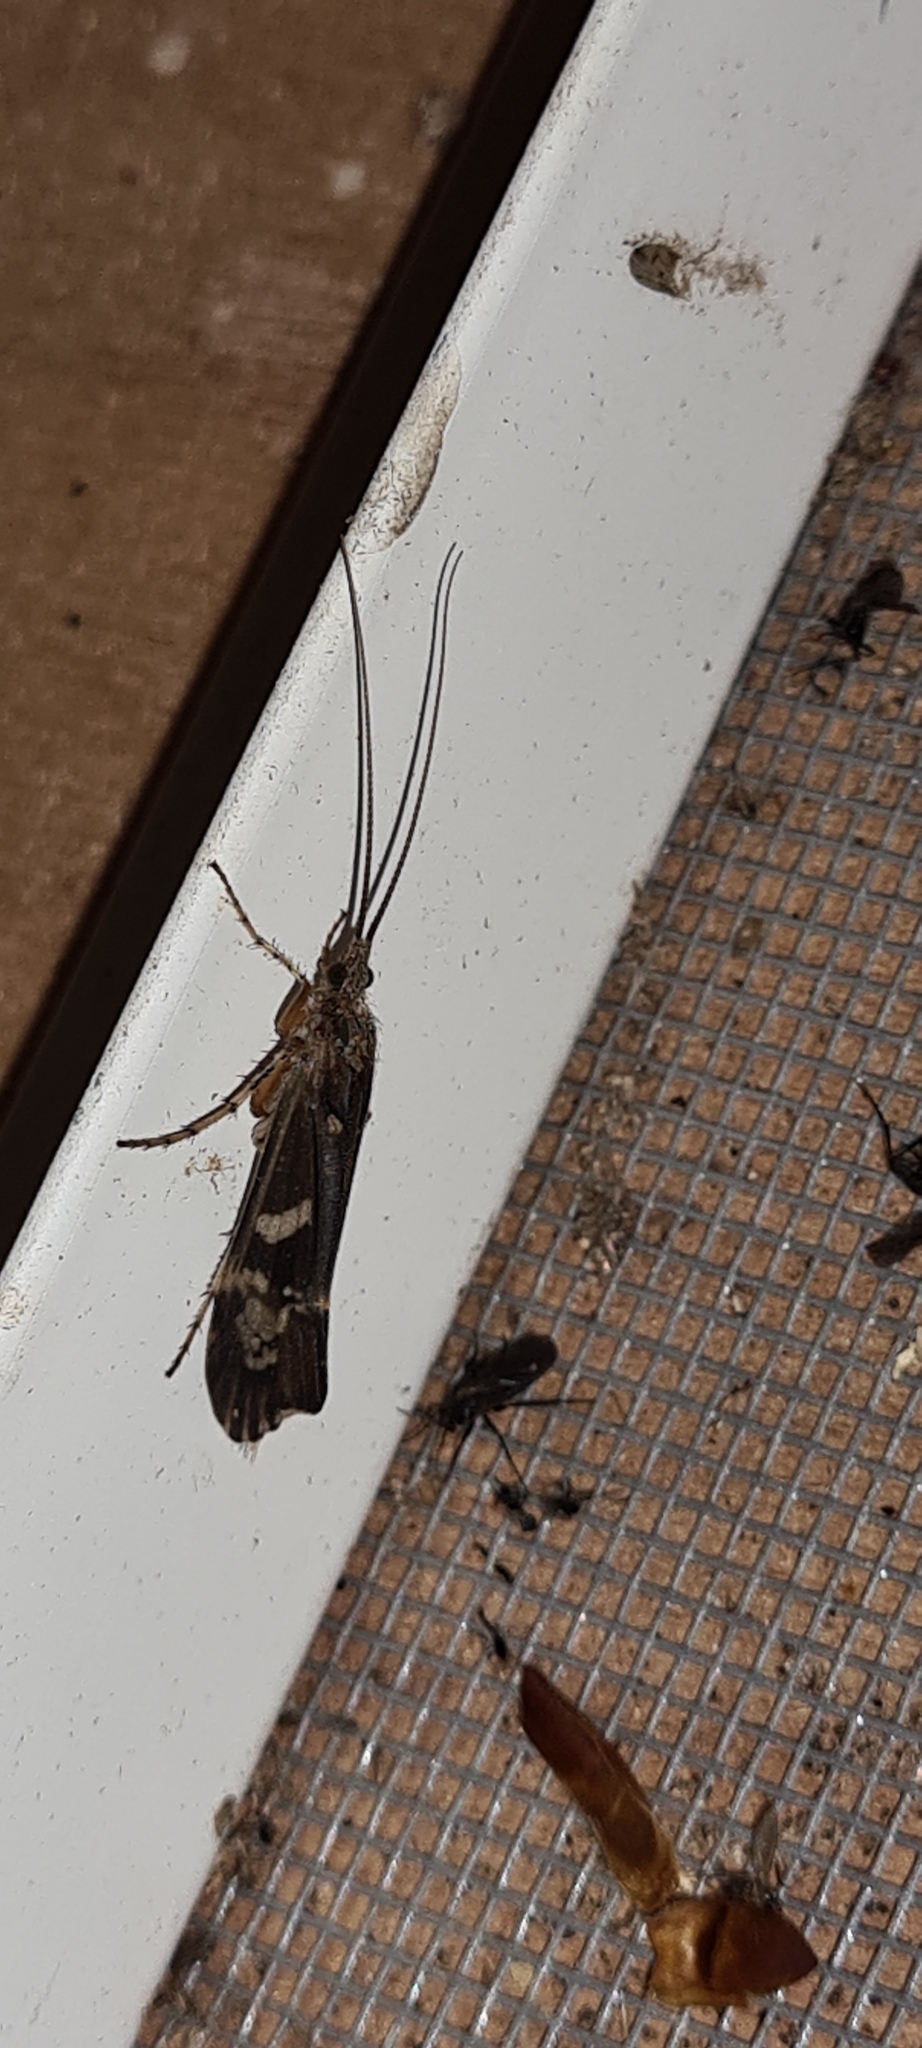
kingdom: Animalia
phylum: Arthropoda
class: Insecta
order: Trichoptera
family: Limnephilidae
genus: Glyphotaelius
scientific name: Glyphotaelius pellucidus
